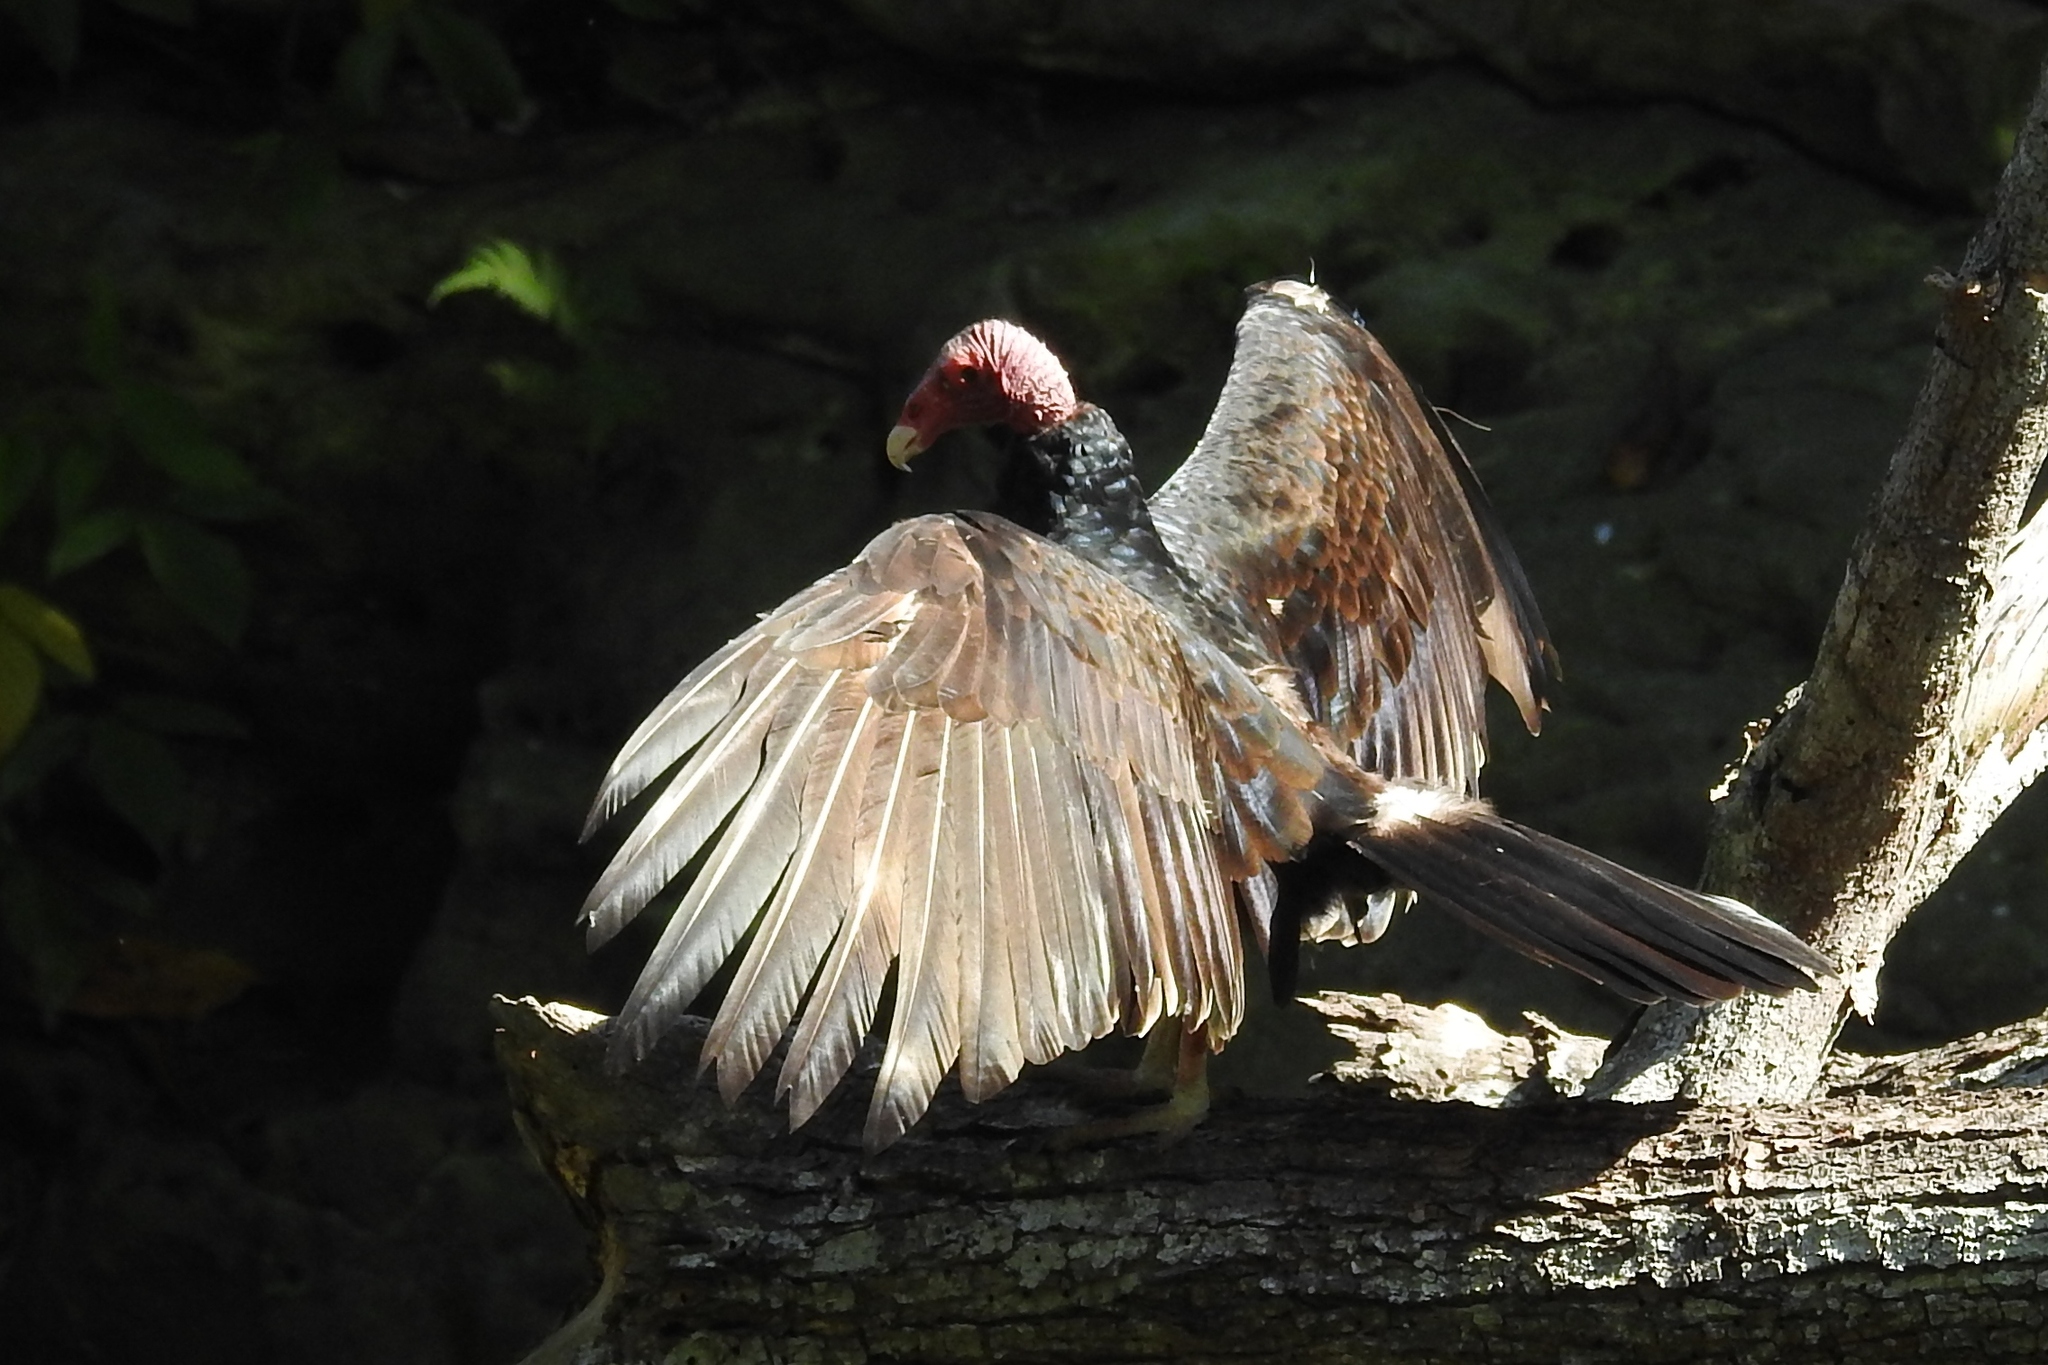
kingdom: Animalia
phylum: Chordata
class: Aves
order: Accipitriformes
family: Cathartidae
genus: Cathartes
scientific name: Cathartes aura
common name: Turkey vulture
